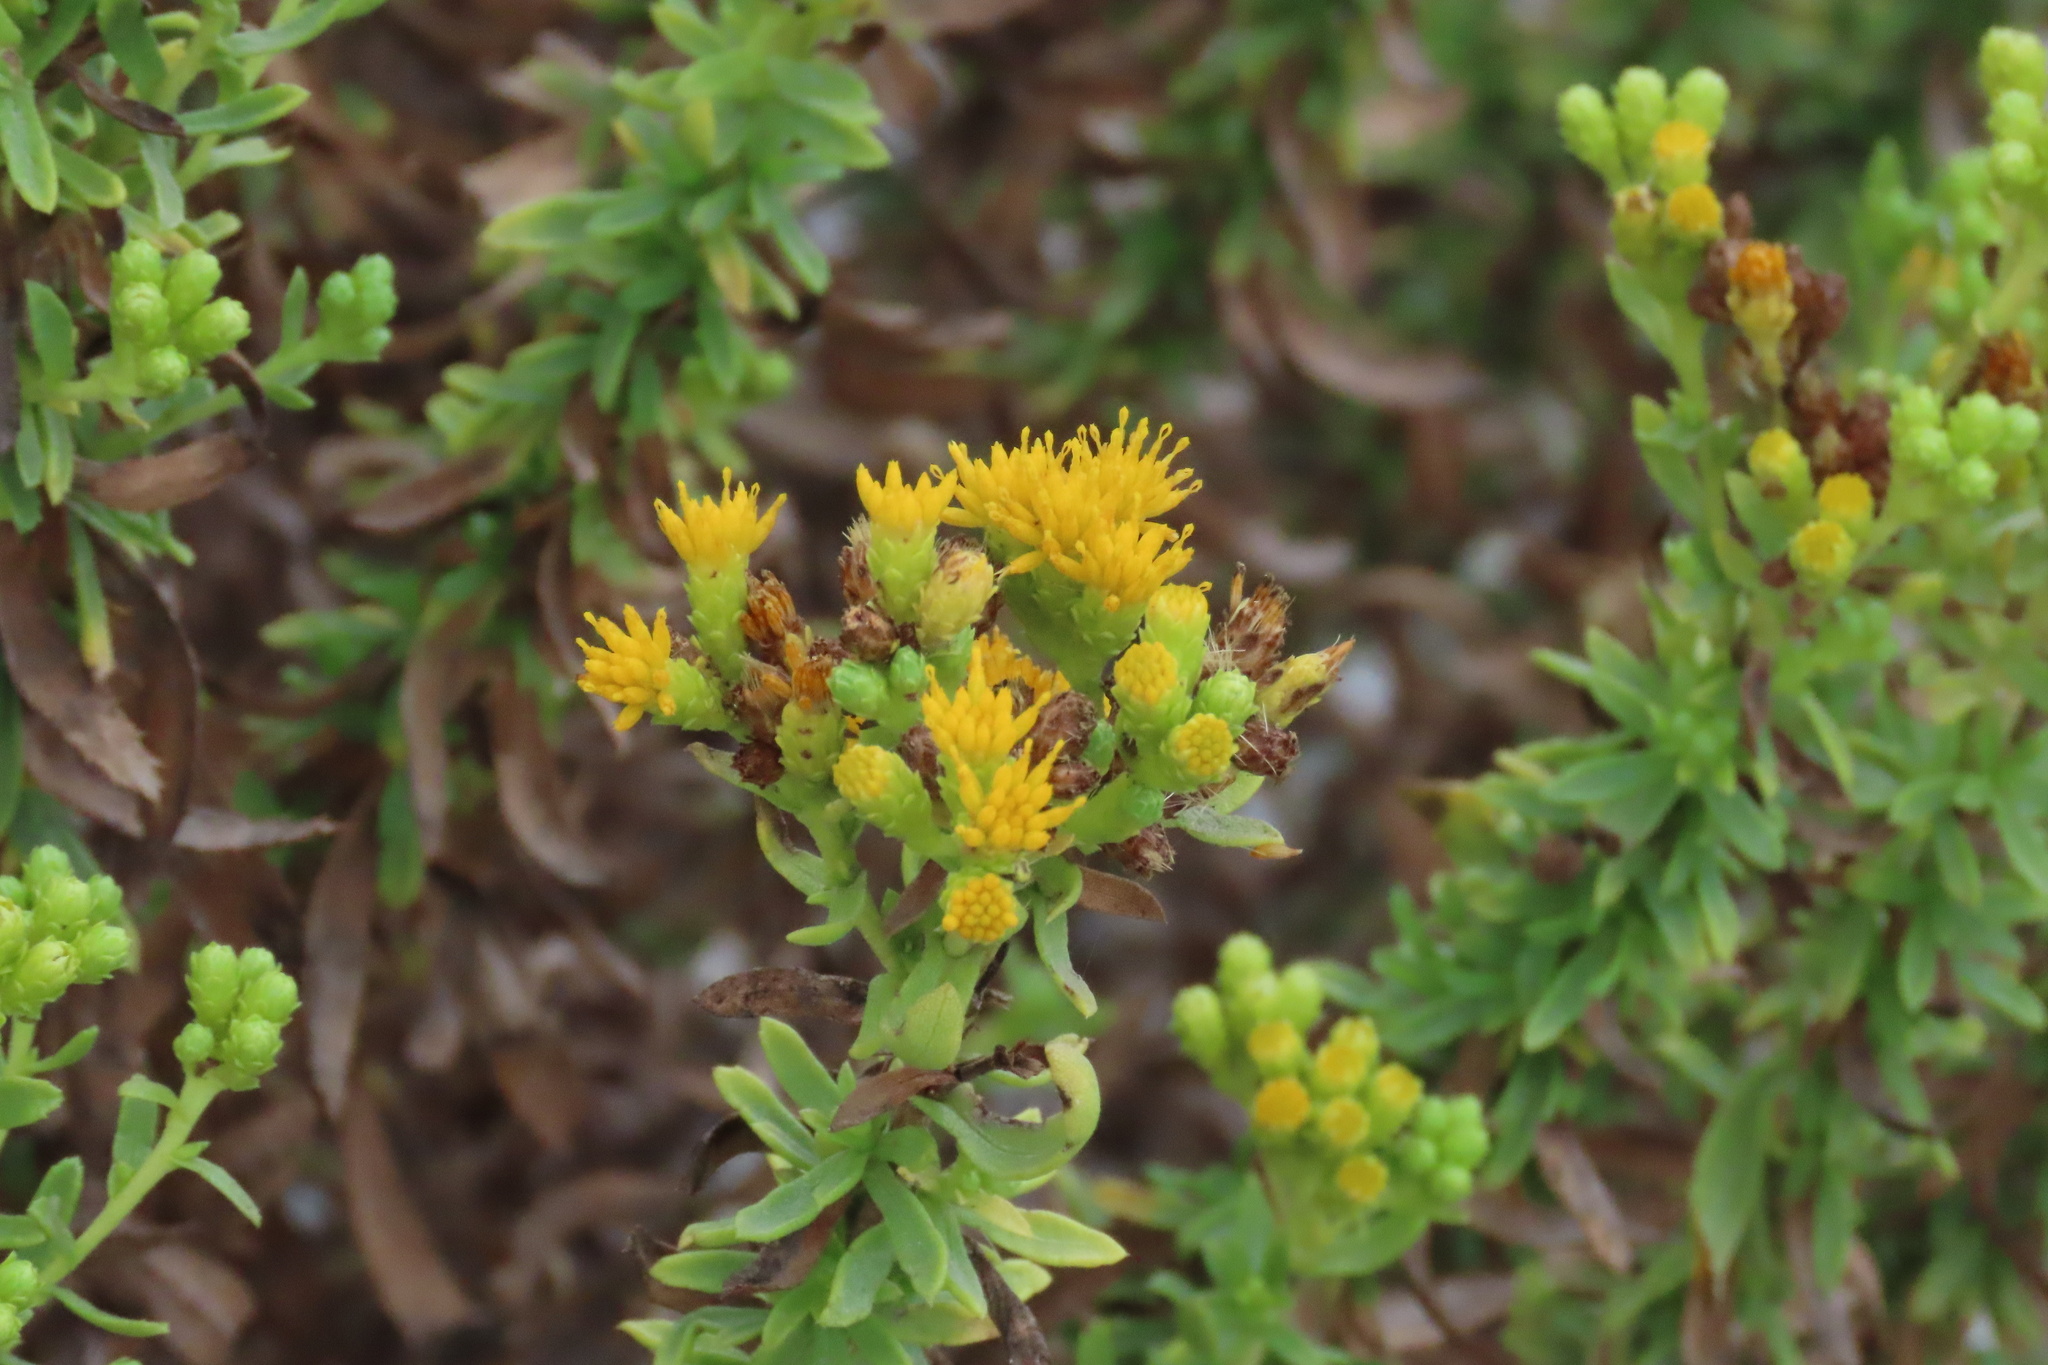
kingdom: Plantae
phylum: Tracheophyta
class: Magnoliopsida
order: Asterales
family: Asteraceae
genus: Isocoma
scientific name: Isocoma menziesii
